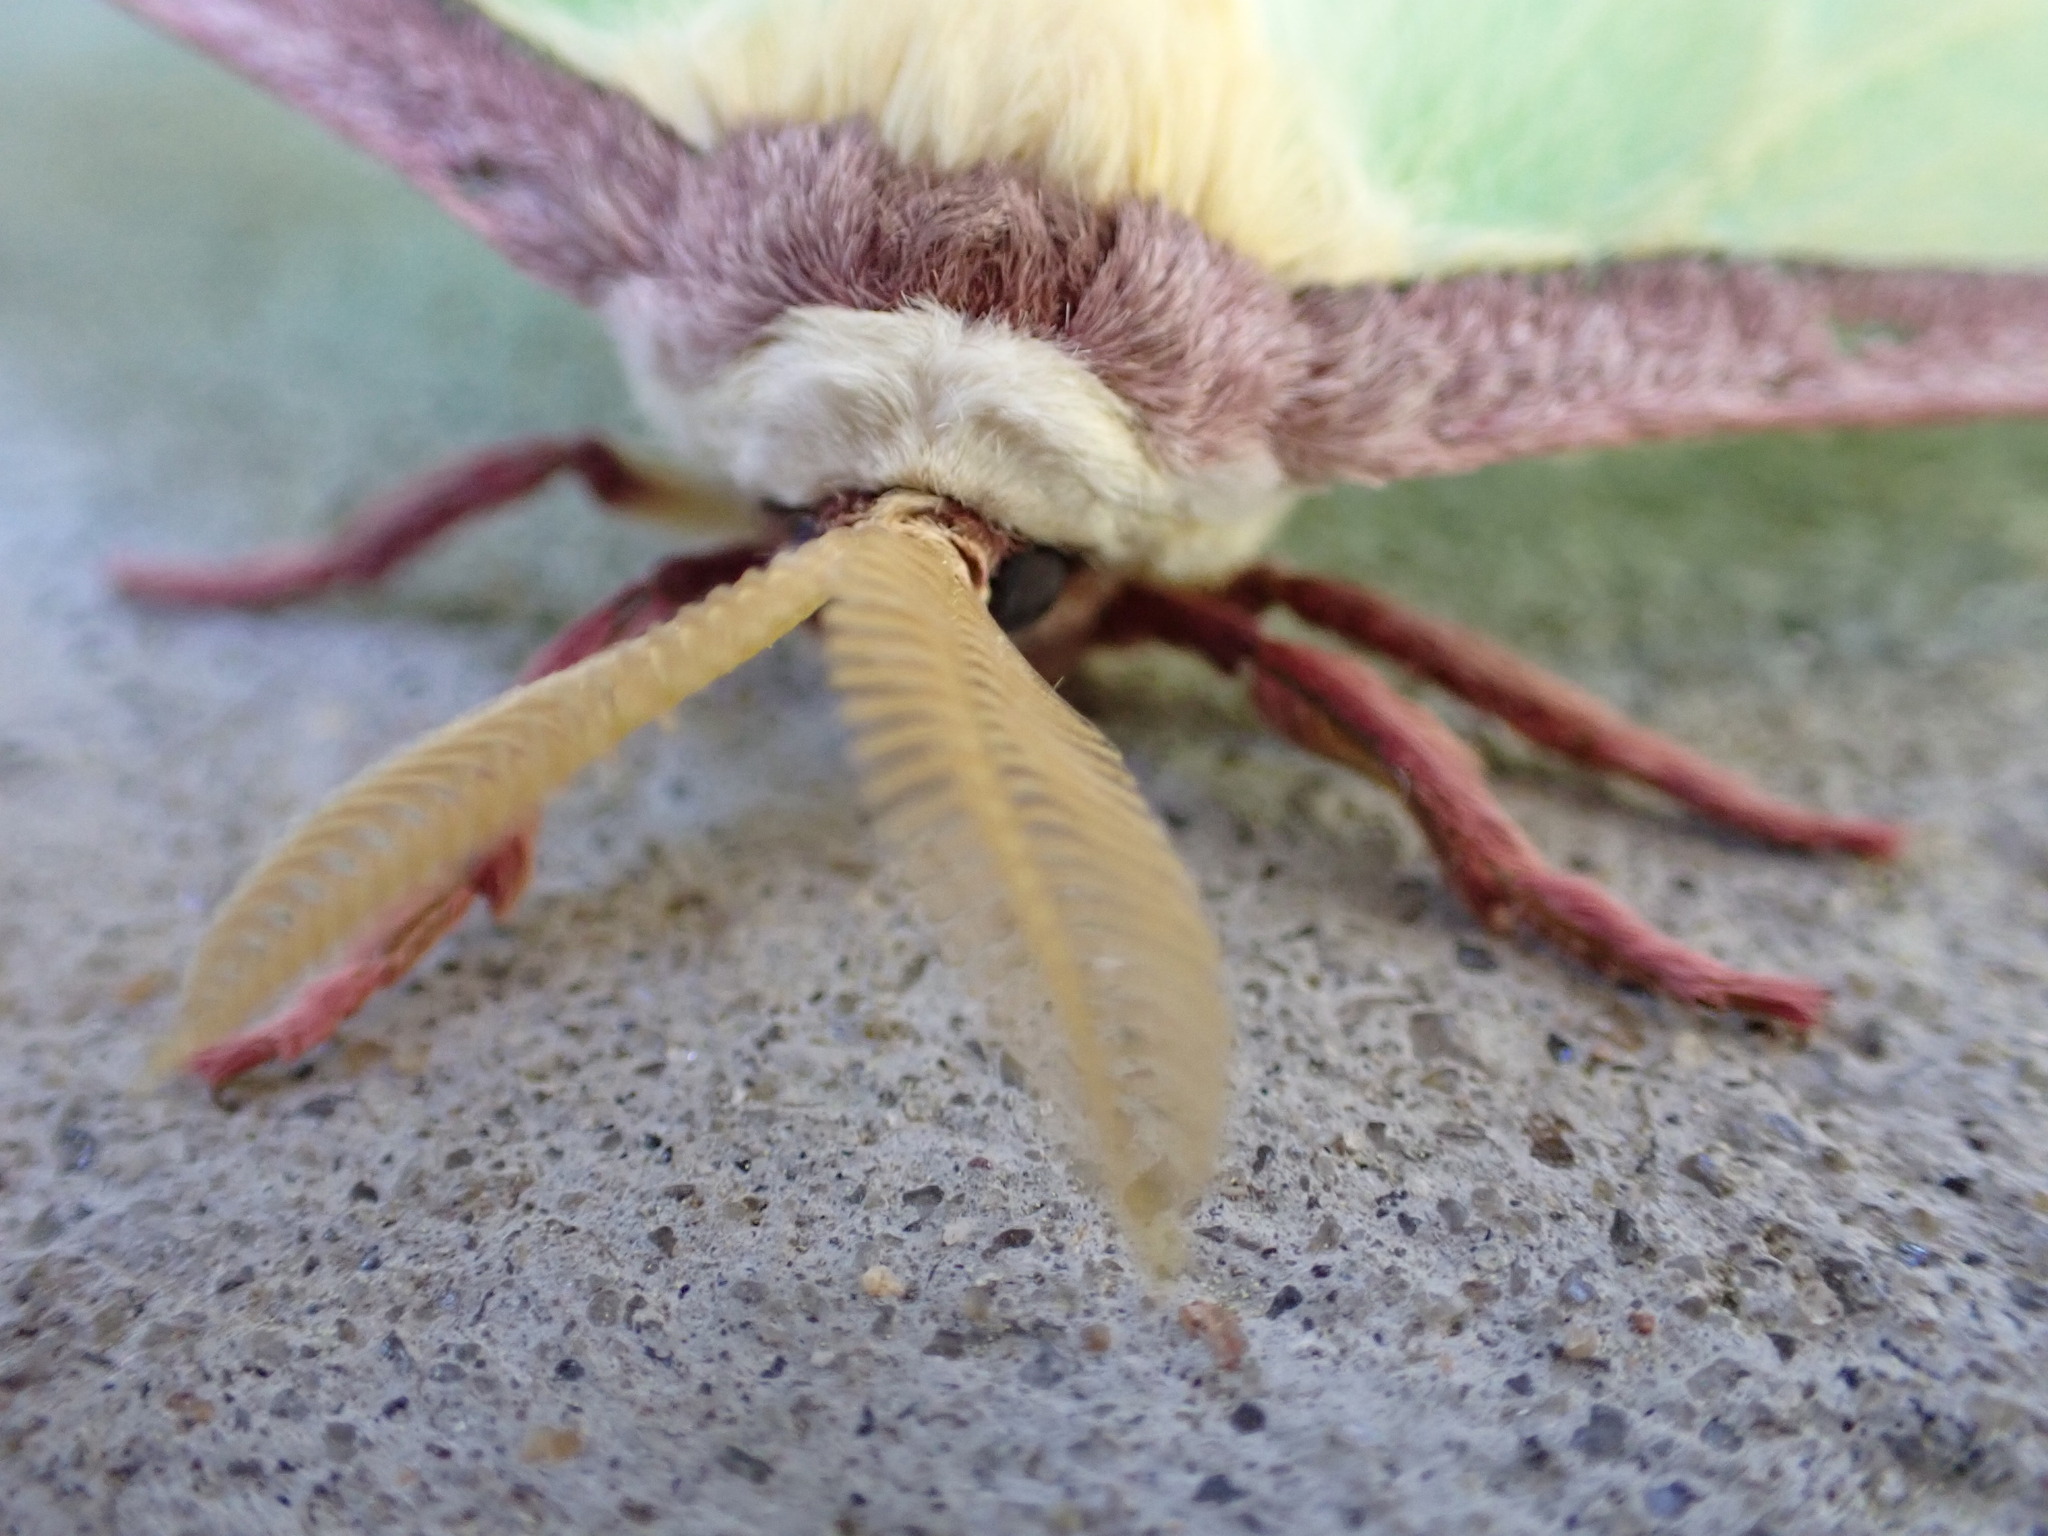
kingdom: Animalia
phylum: Arthropoda
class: Insecta
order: Lepidoptera
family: Saturniidae
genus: Actias
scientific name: Actias luna
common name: Luna moth
